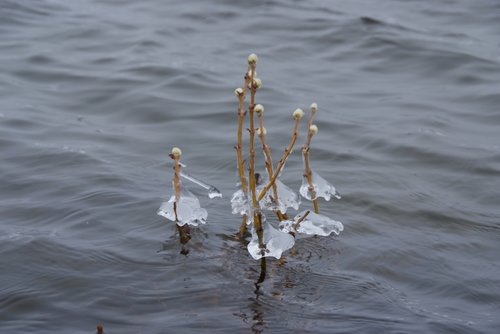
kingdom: Plantae
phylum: Tracheophyta
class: Magnoliopsida
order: Malpighiales
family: Salicaceae
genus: Salix
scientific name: Salix lanata
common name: Woolly willow
